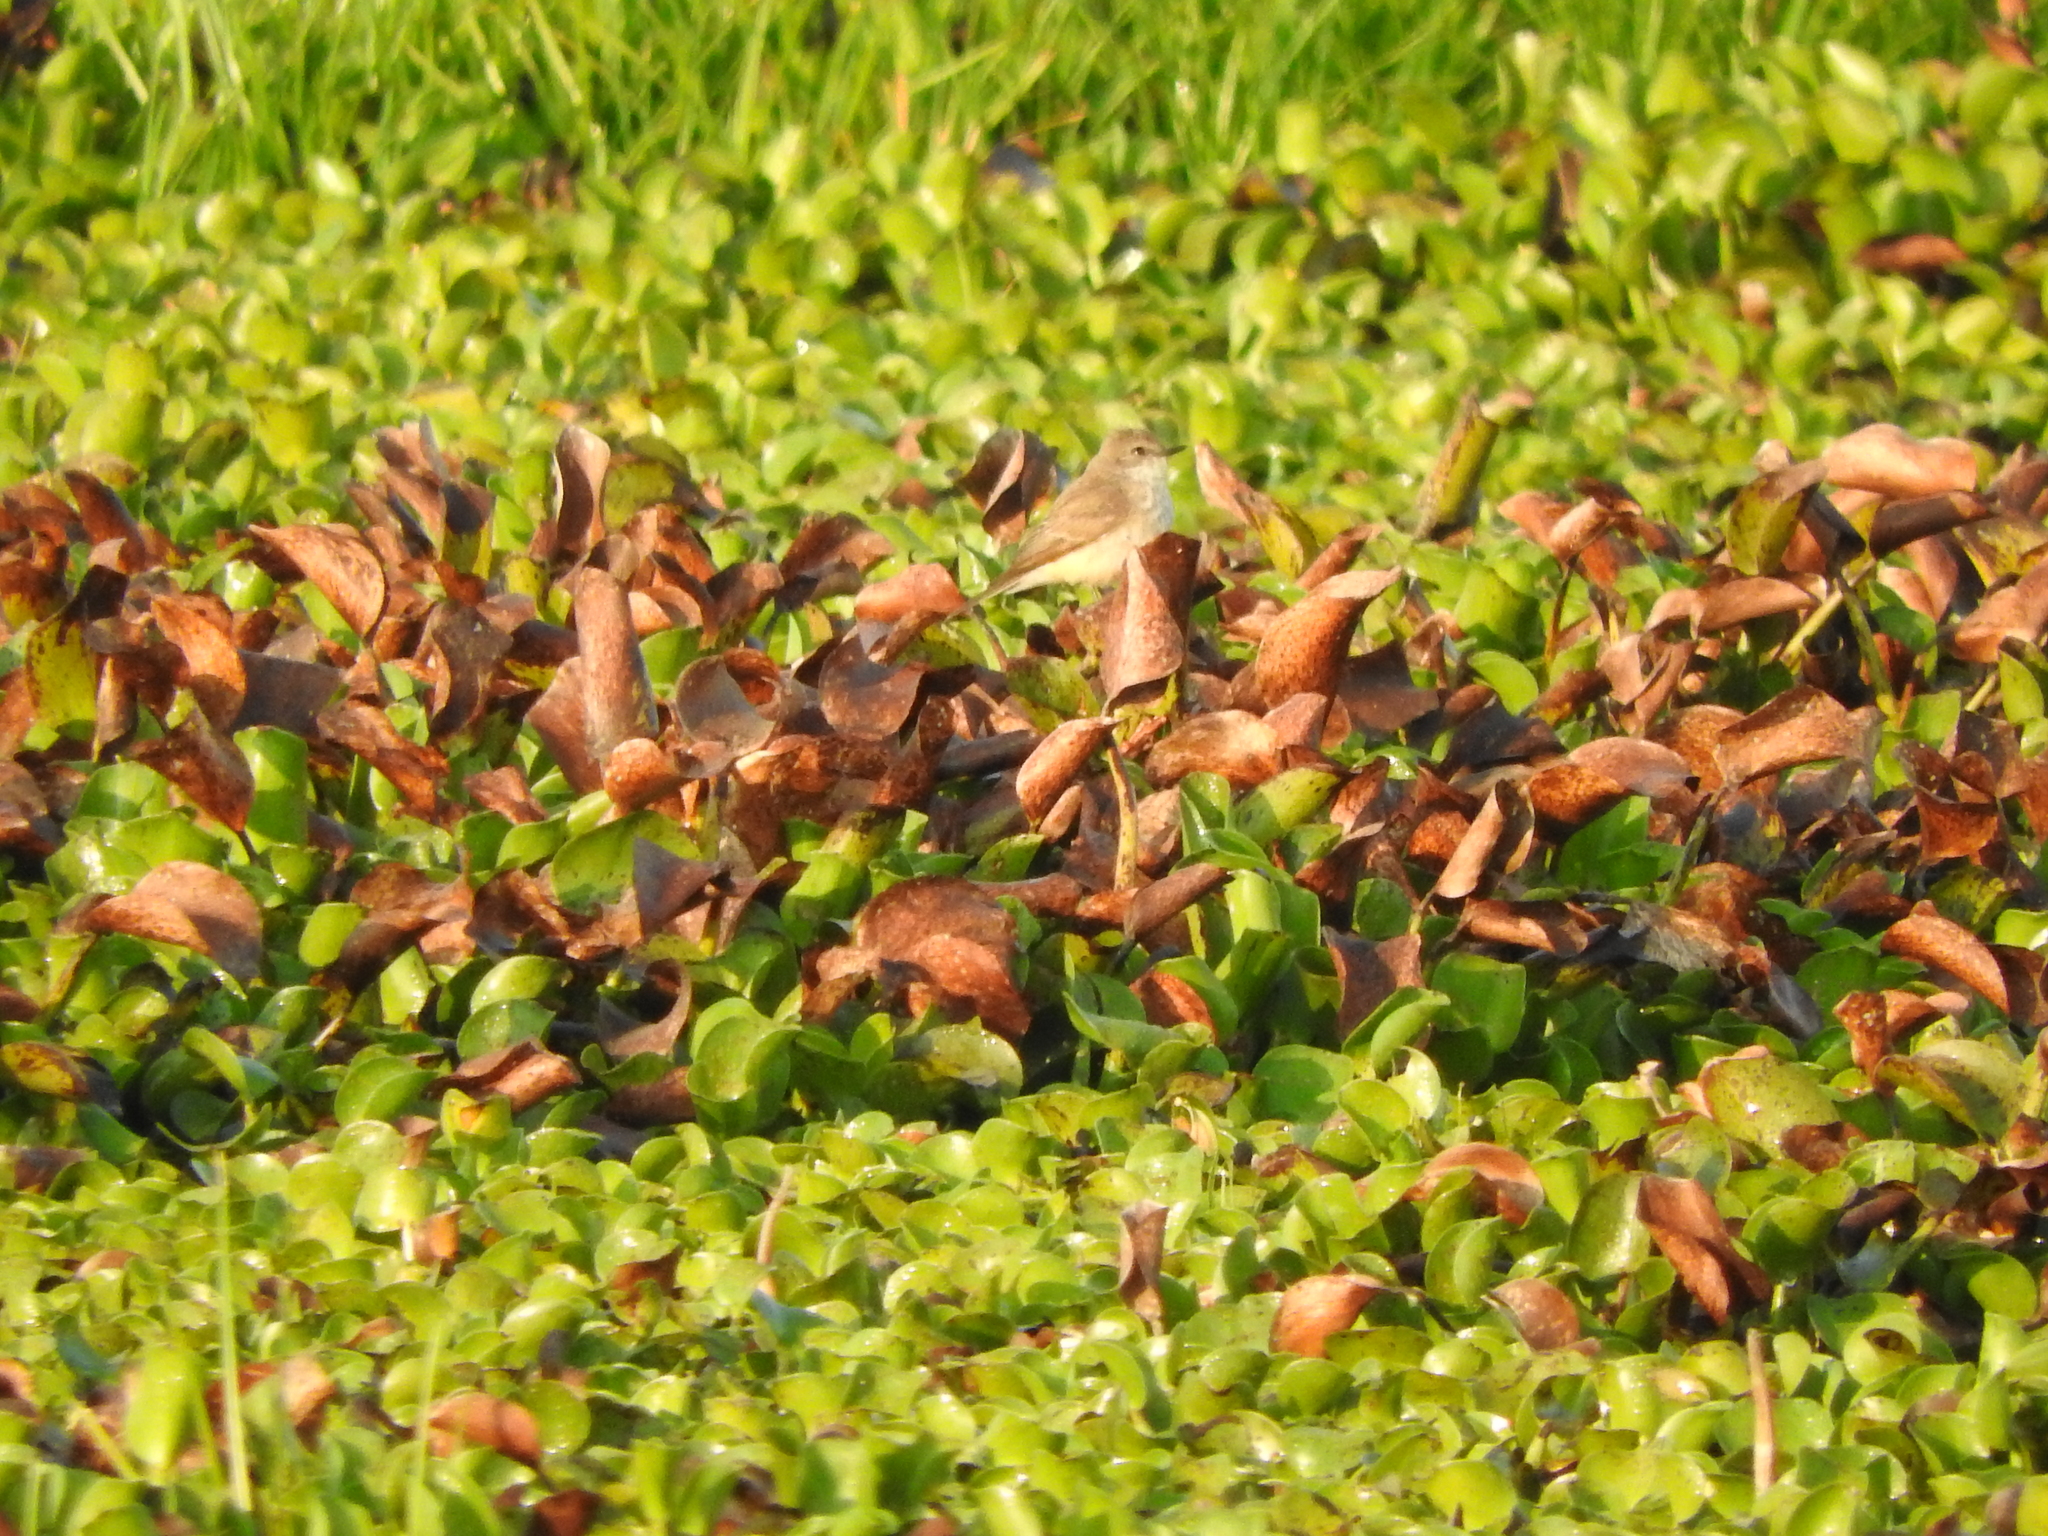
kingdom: Animalia
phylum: Chordata
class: Aves
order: Passeriformes
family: Tyrannidae
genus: Pyrocephalus
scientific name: Pyrocephalus rubinus
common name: Vermilion flycatcher
